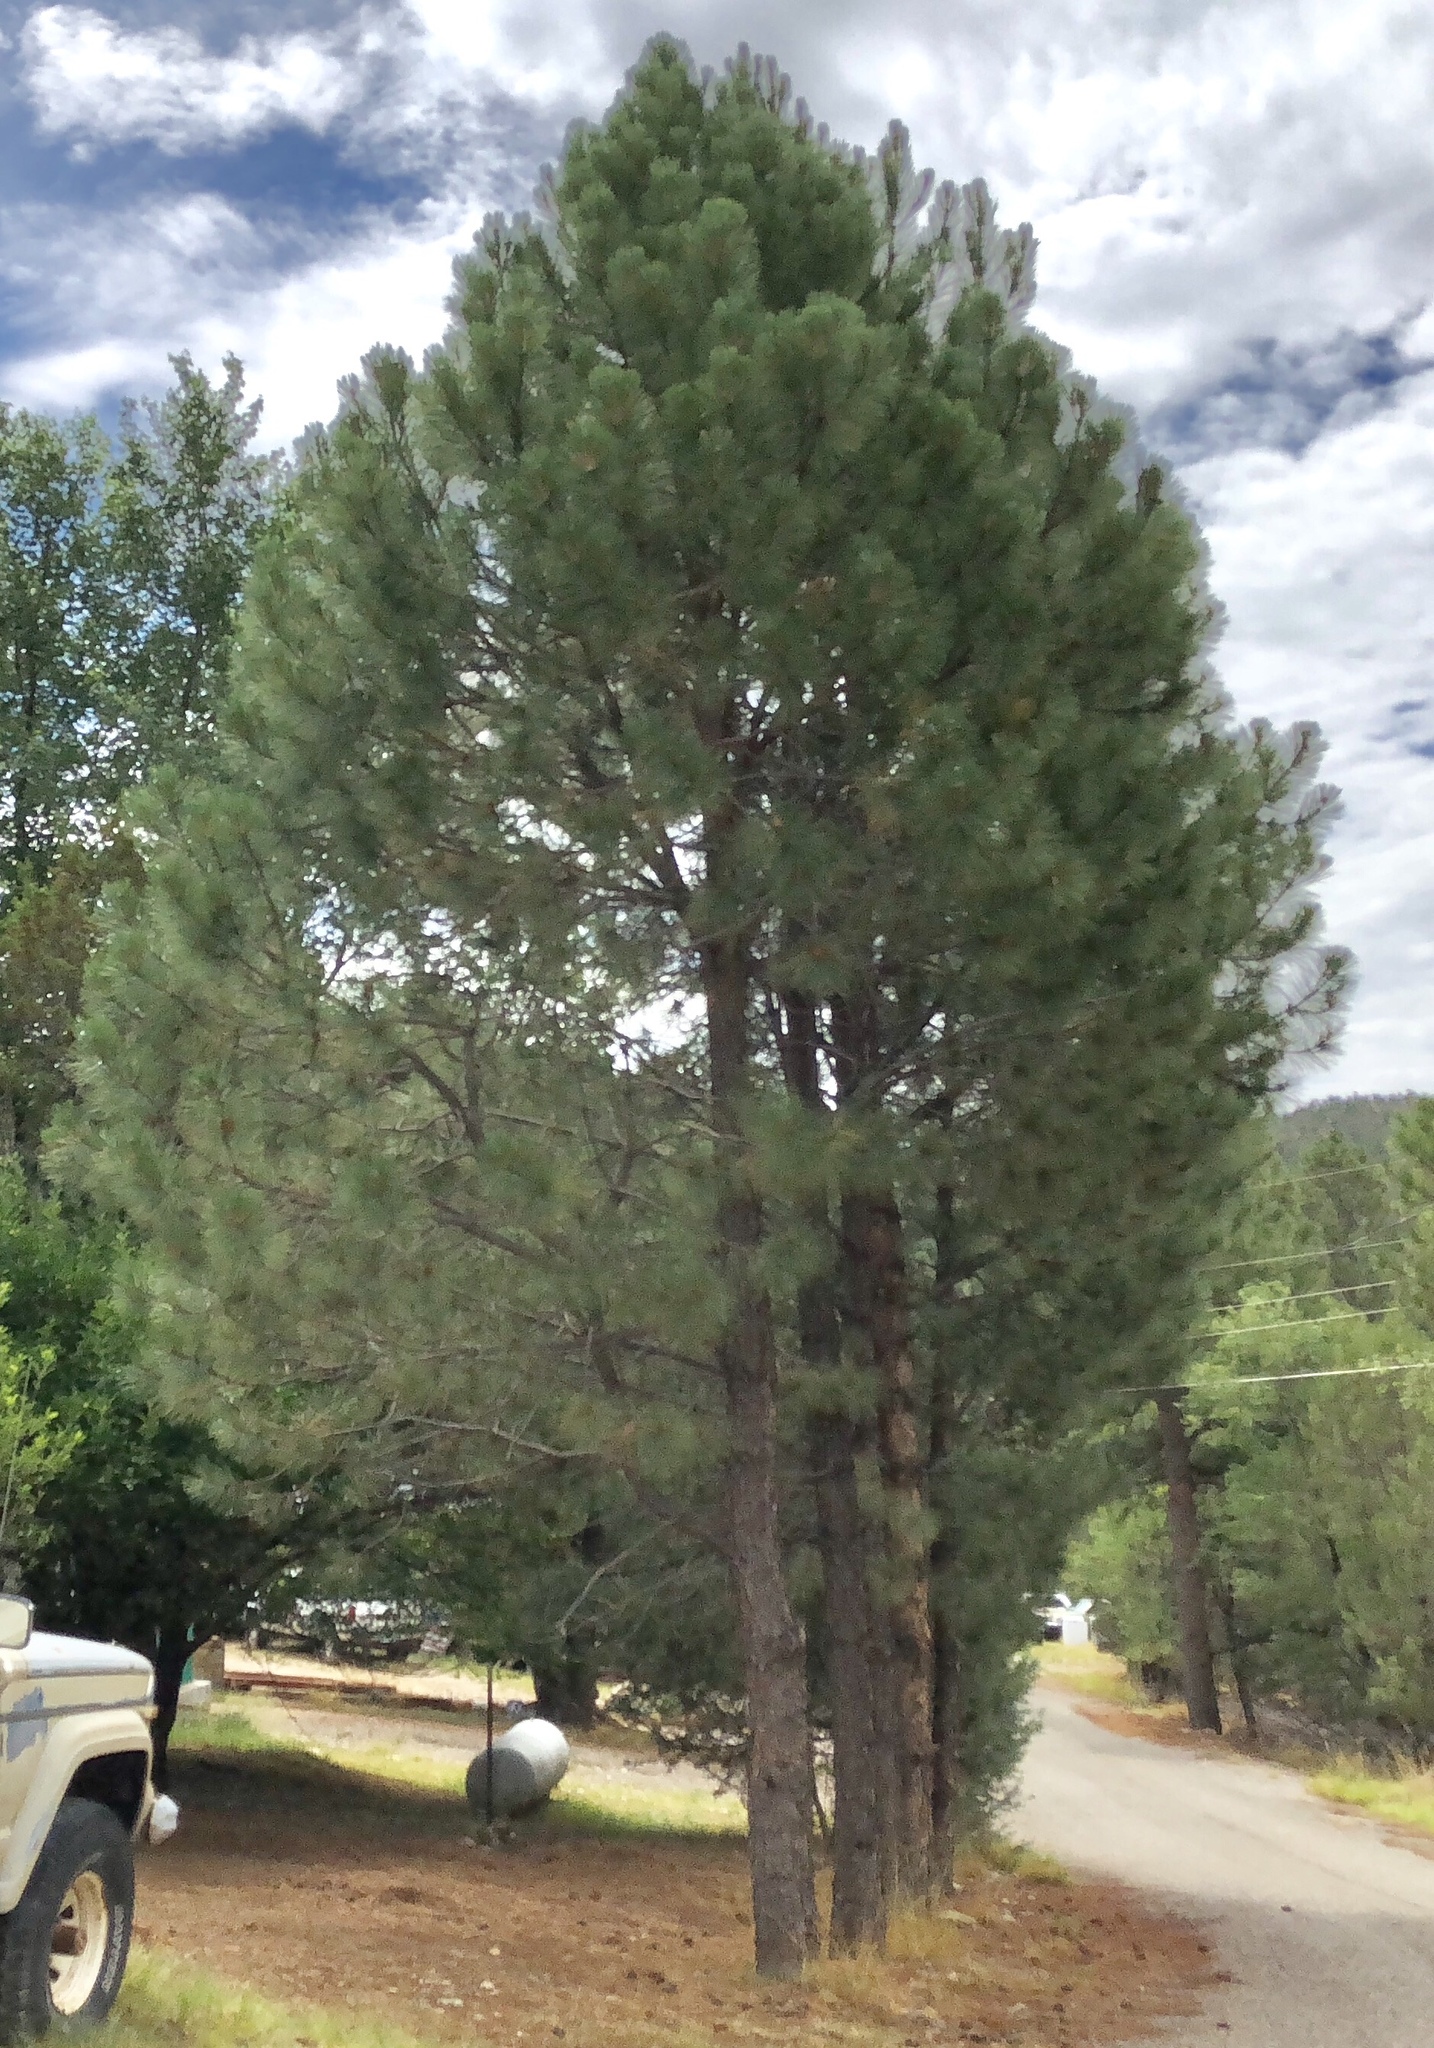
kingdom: Plantae
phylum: Tracheophyta
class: Pinopsida
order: Pinales
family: Pinaceae
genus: Pinus
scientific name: Pinus ponderosa
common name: Western yellow-pine
